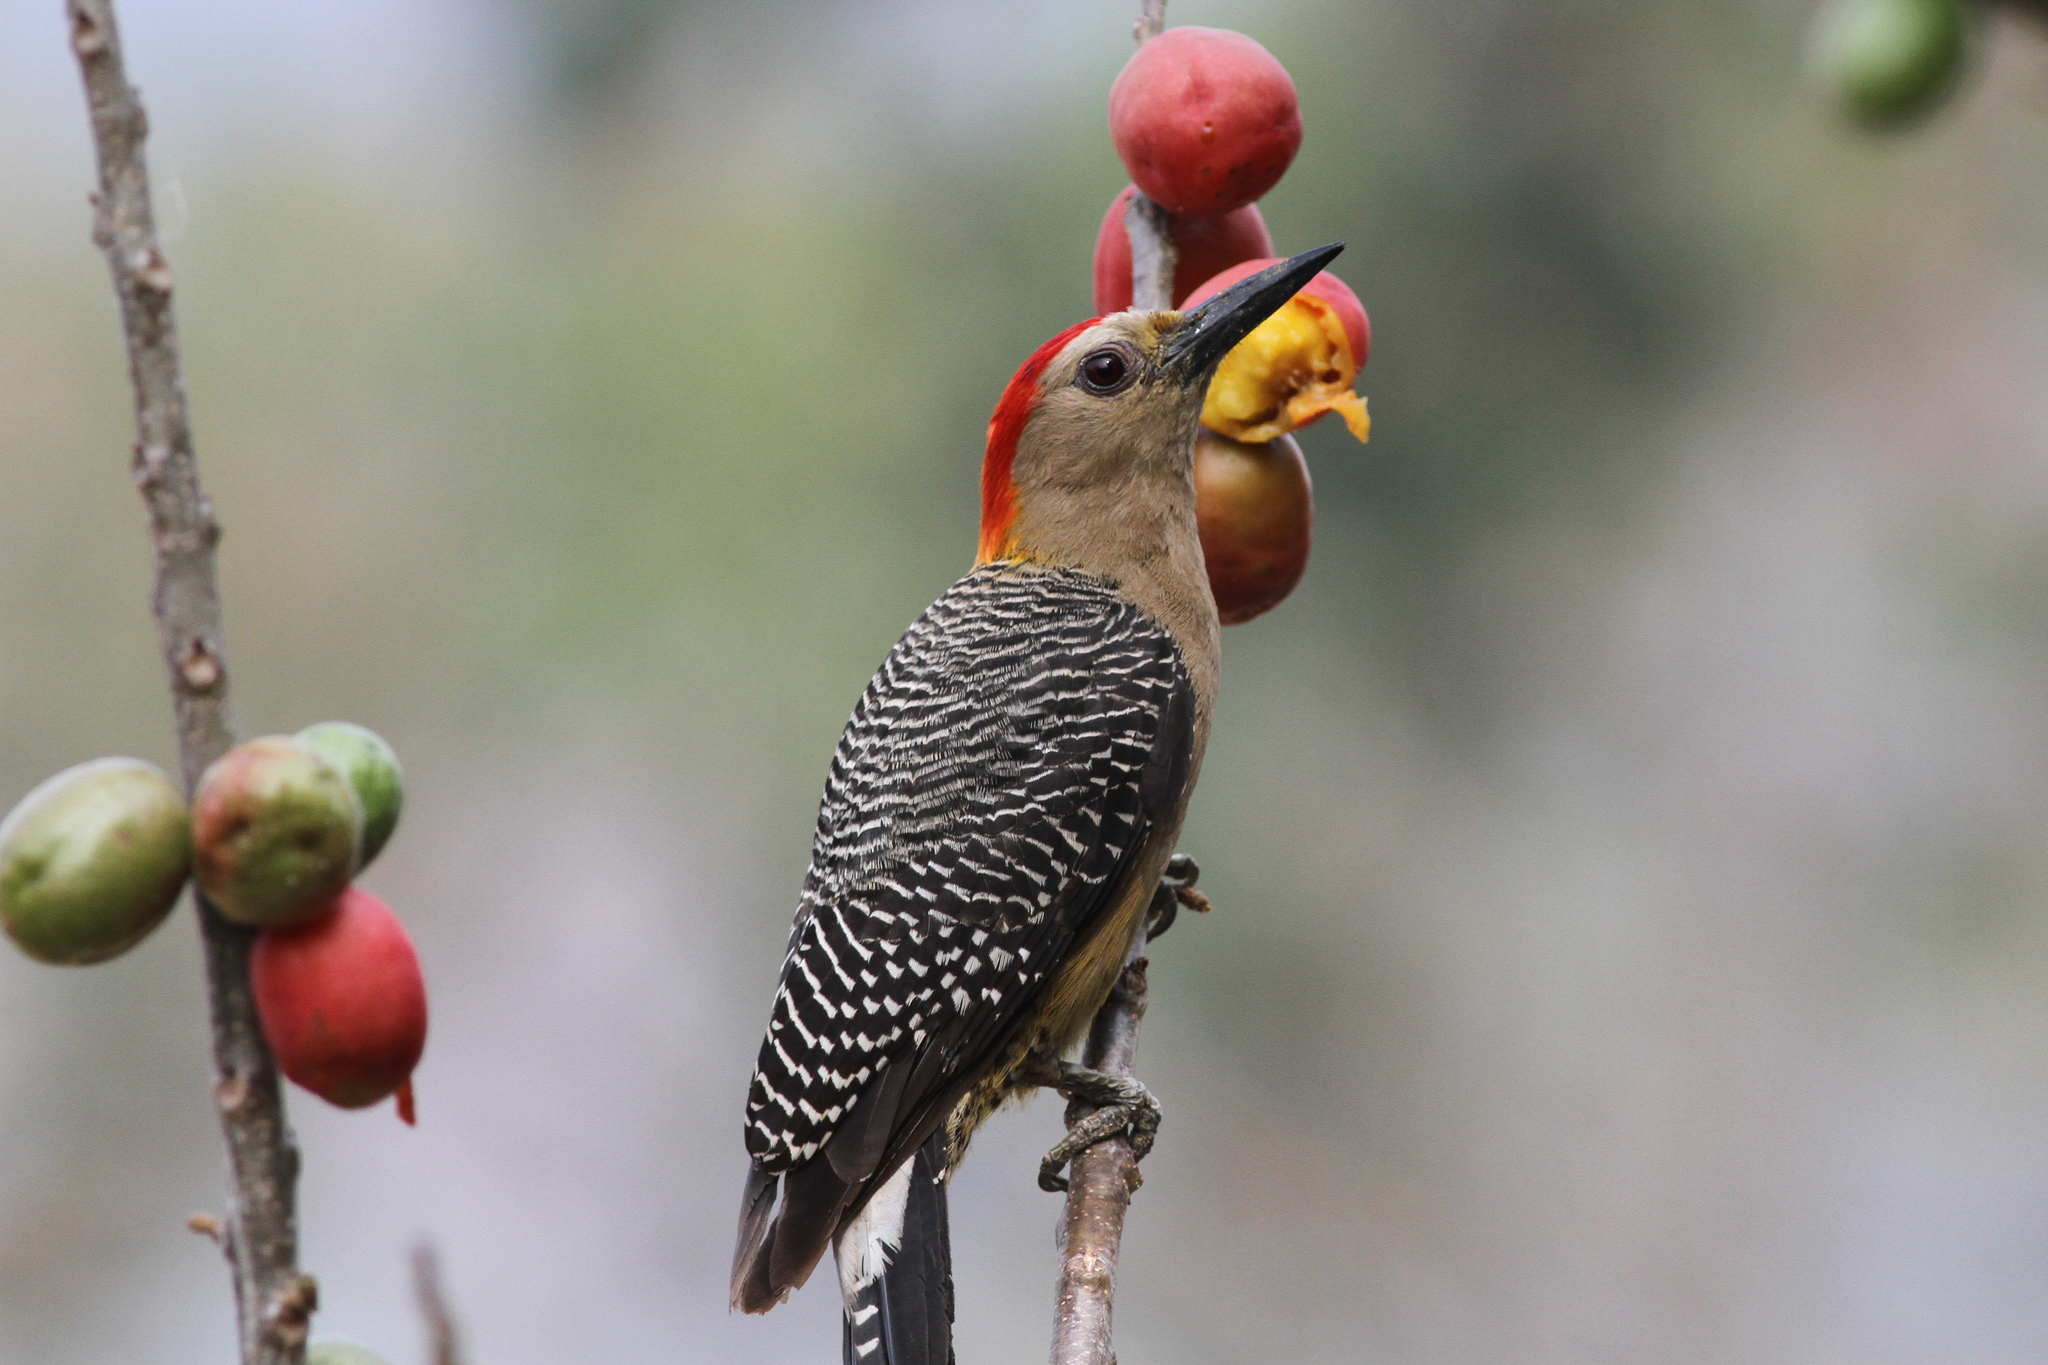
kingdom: Animalia
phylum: Chordata
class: Aves
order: Piciformes
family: Picidae
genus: Melanerpes
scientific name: Melanerpes aurifrons
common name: Golden-fronted woodpecker
